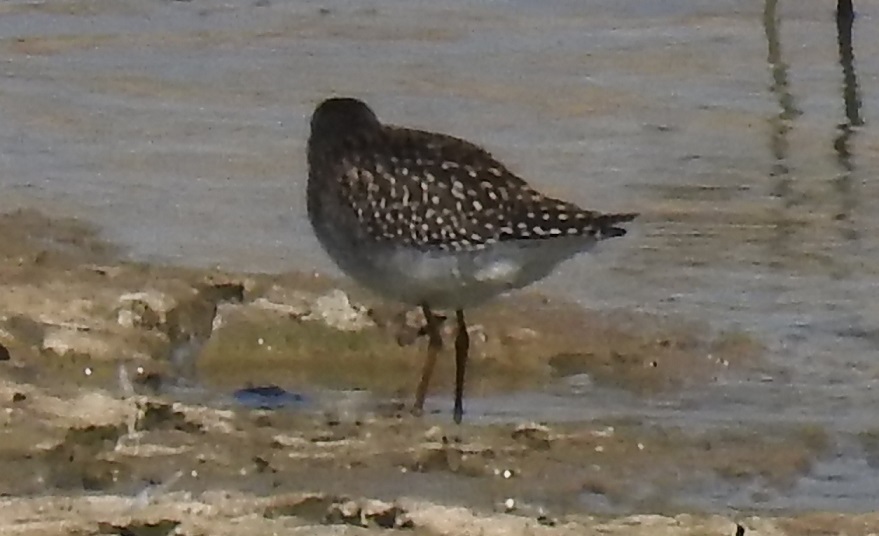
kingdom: Animalia
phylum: Chordata
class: Aves
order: Charadriiformes
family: Scolopacidae
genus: Tringa
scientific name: Tringa glareola
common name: Wood sandpiper
